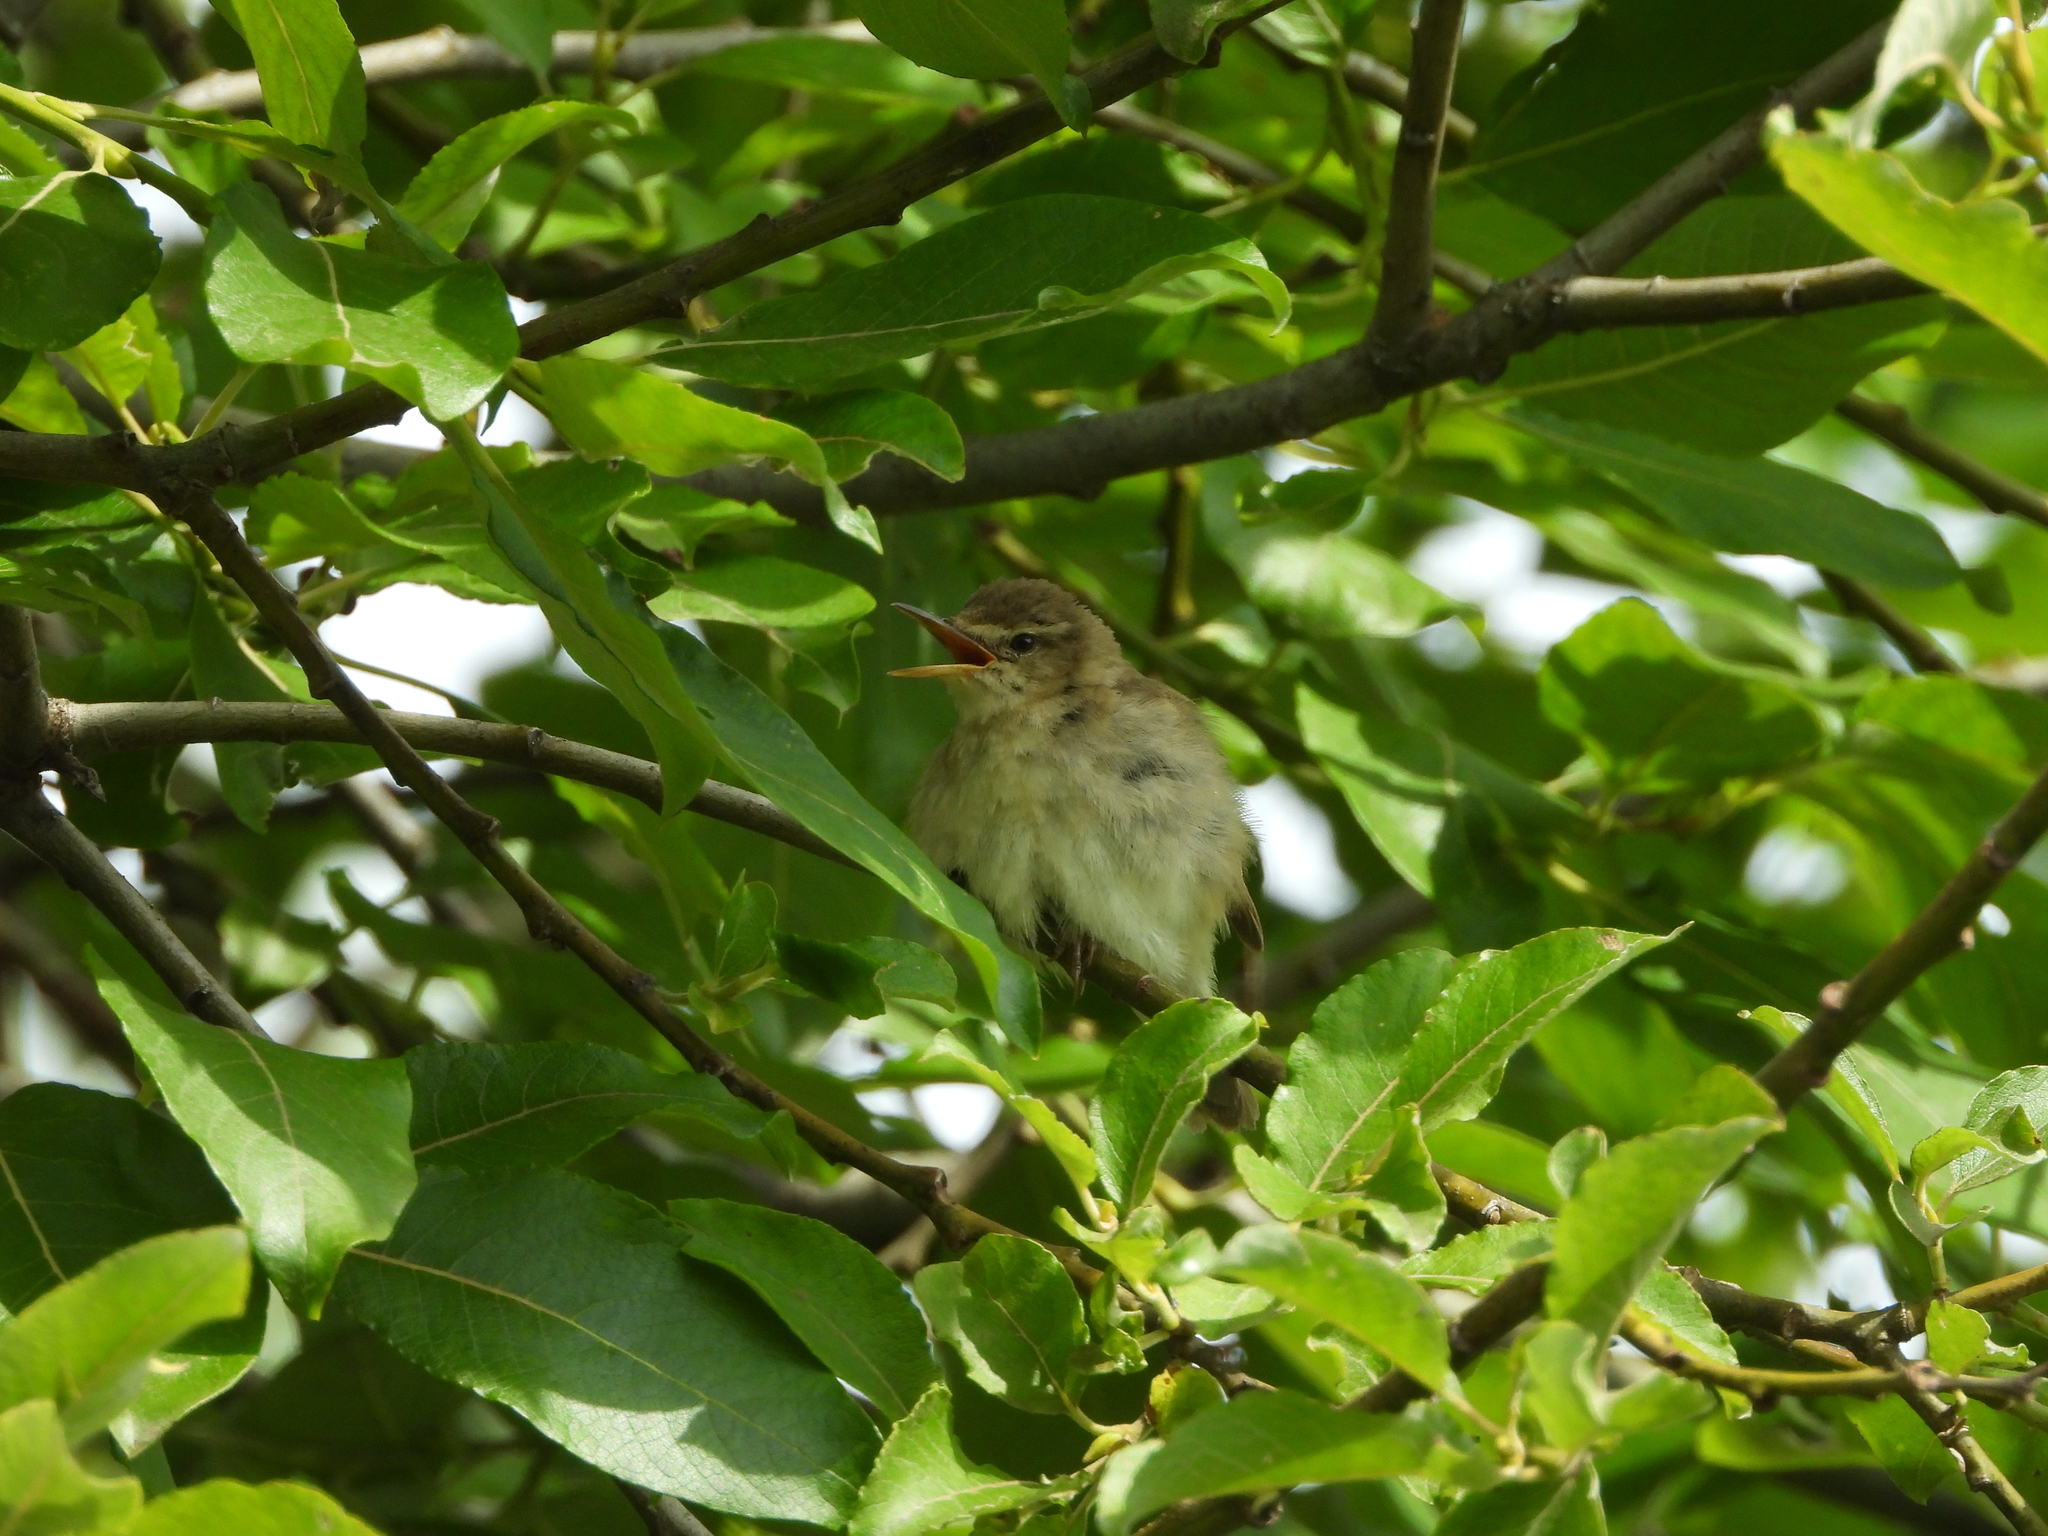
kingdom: Animalia
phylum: Chordata
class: Aves
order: Passeriformes
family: Acrocephalidae
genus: Acrocephalus
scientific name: Acrocephalus dumetorum
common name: Blyth's reed warbler
